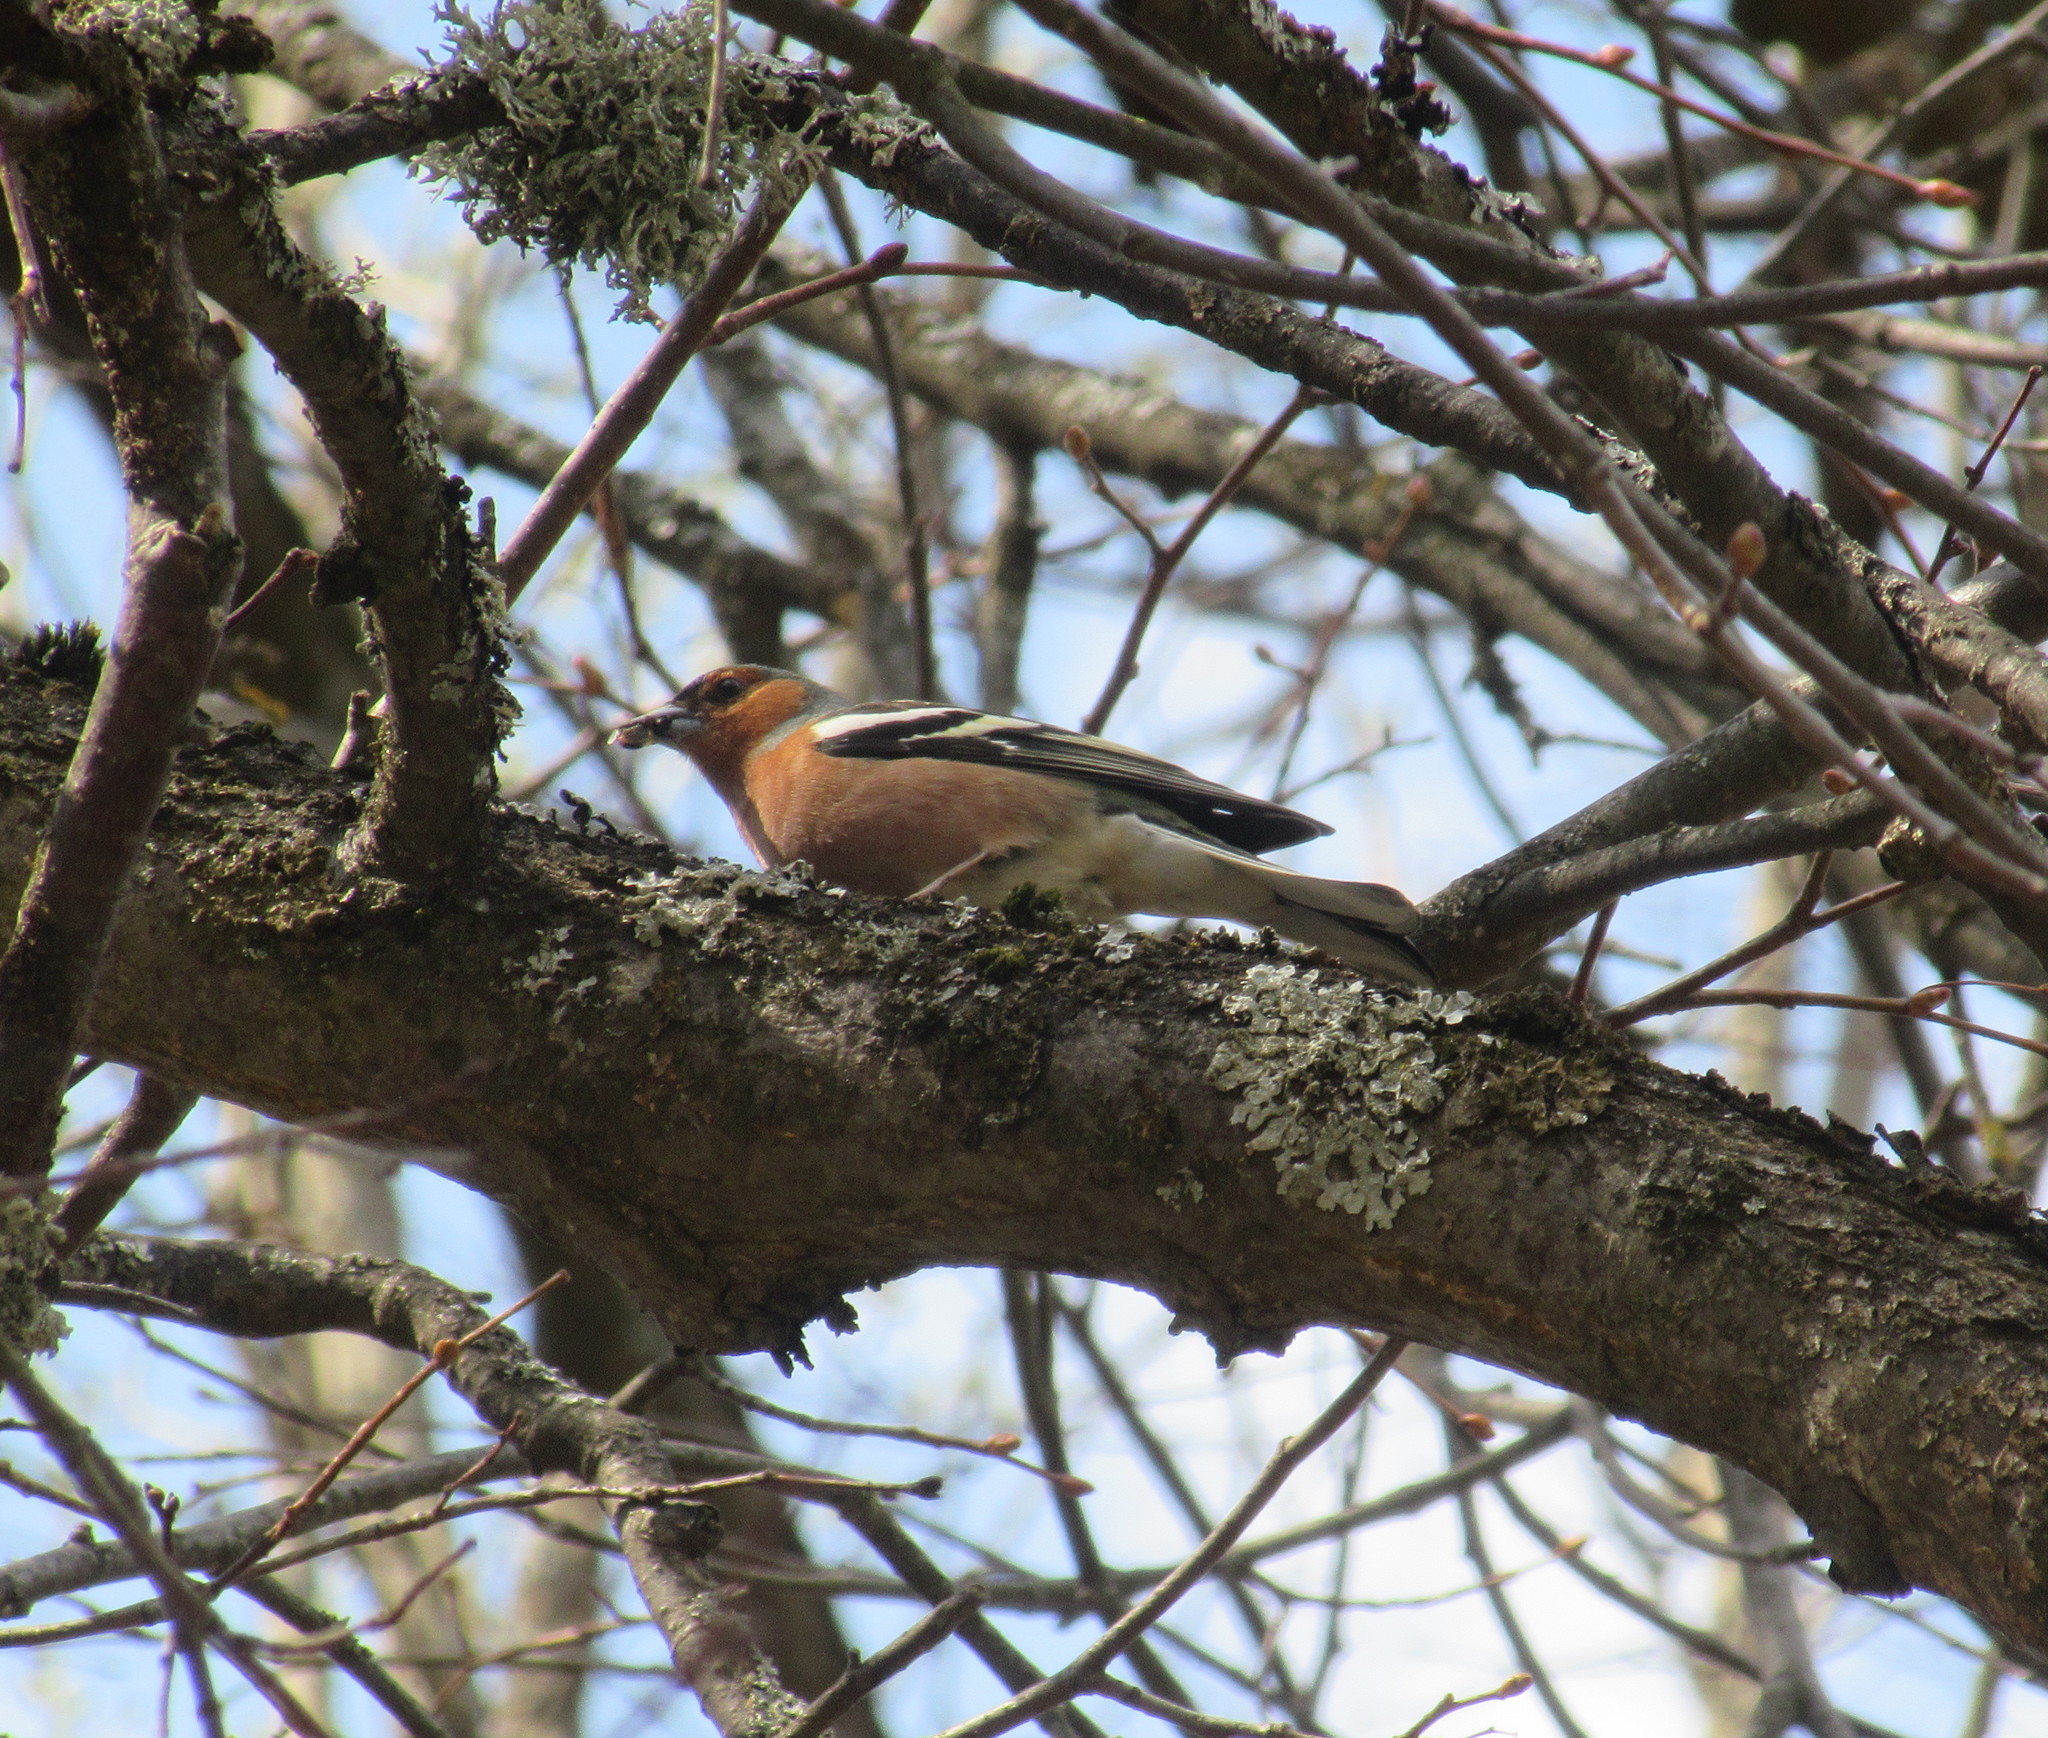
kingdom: Animalia
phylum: Chordata
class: Aves
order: Passeriformes
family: Fringillidae
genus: Fringilla
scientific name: Fringilla coelebs
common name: Common chaffinch
